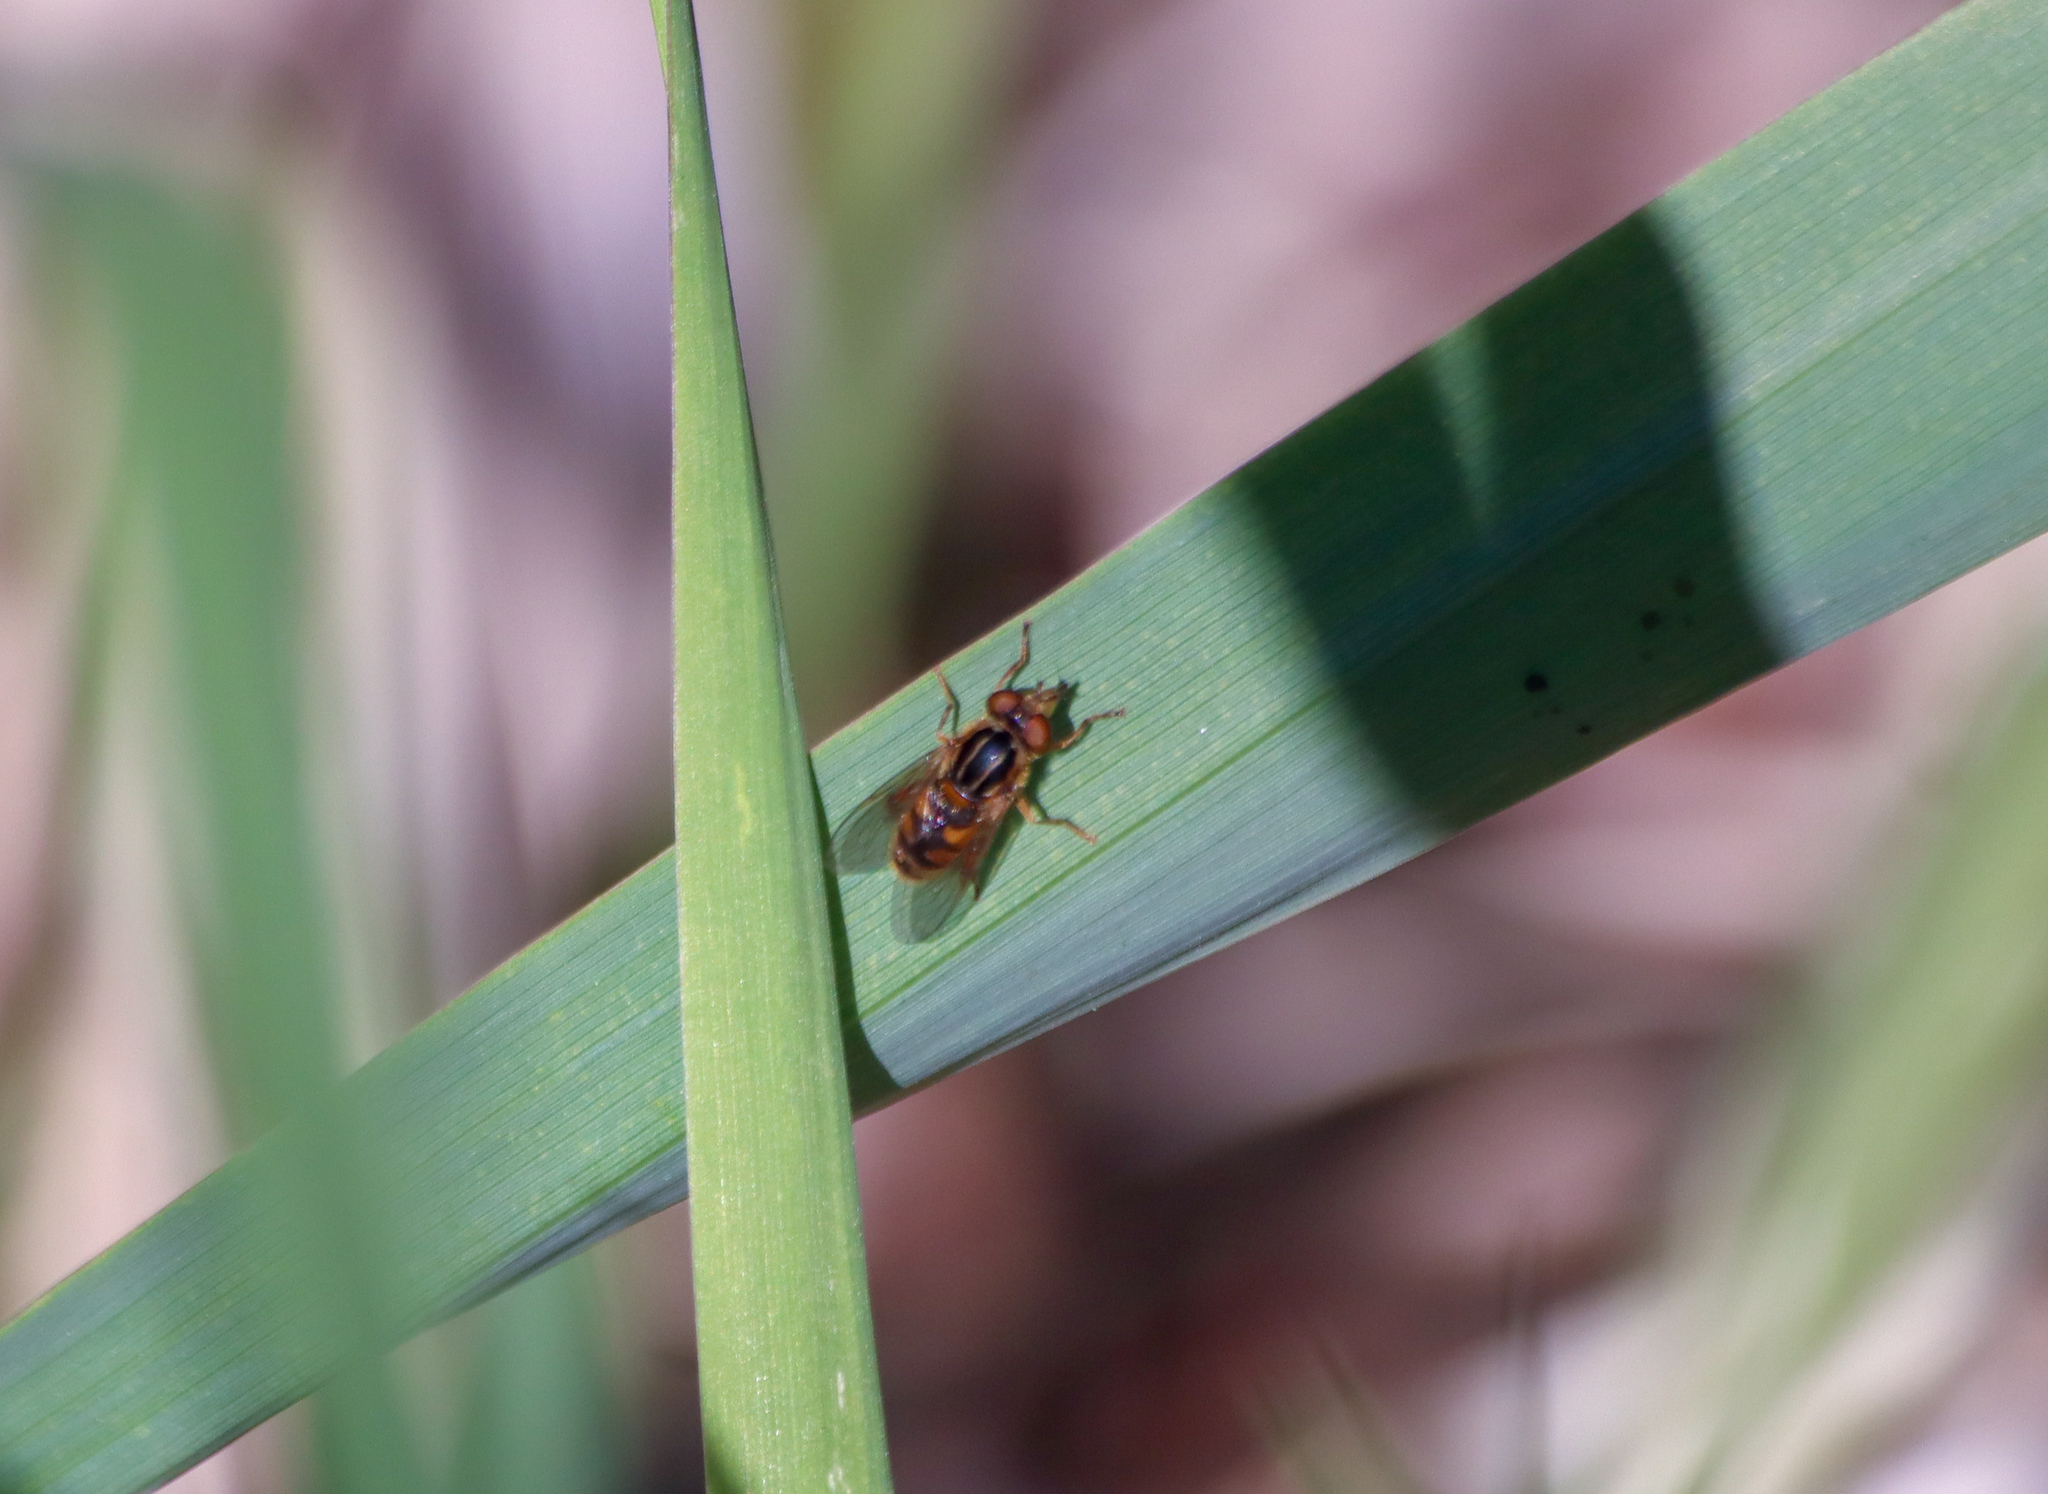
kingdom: Animalia
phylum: Arthropoda
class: Insecta
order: Diptera
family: Syrphidae
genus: Eurimyia
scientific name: Eurimyia stipatus
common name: Long-nosed swamp fly
